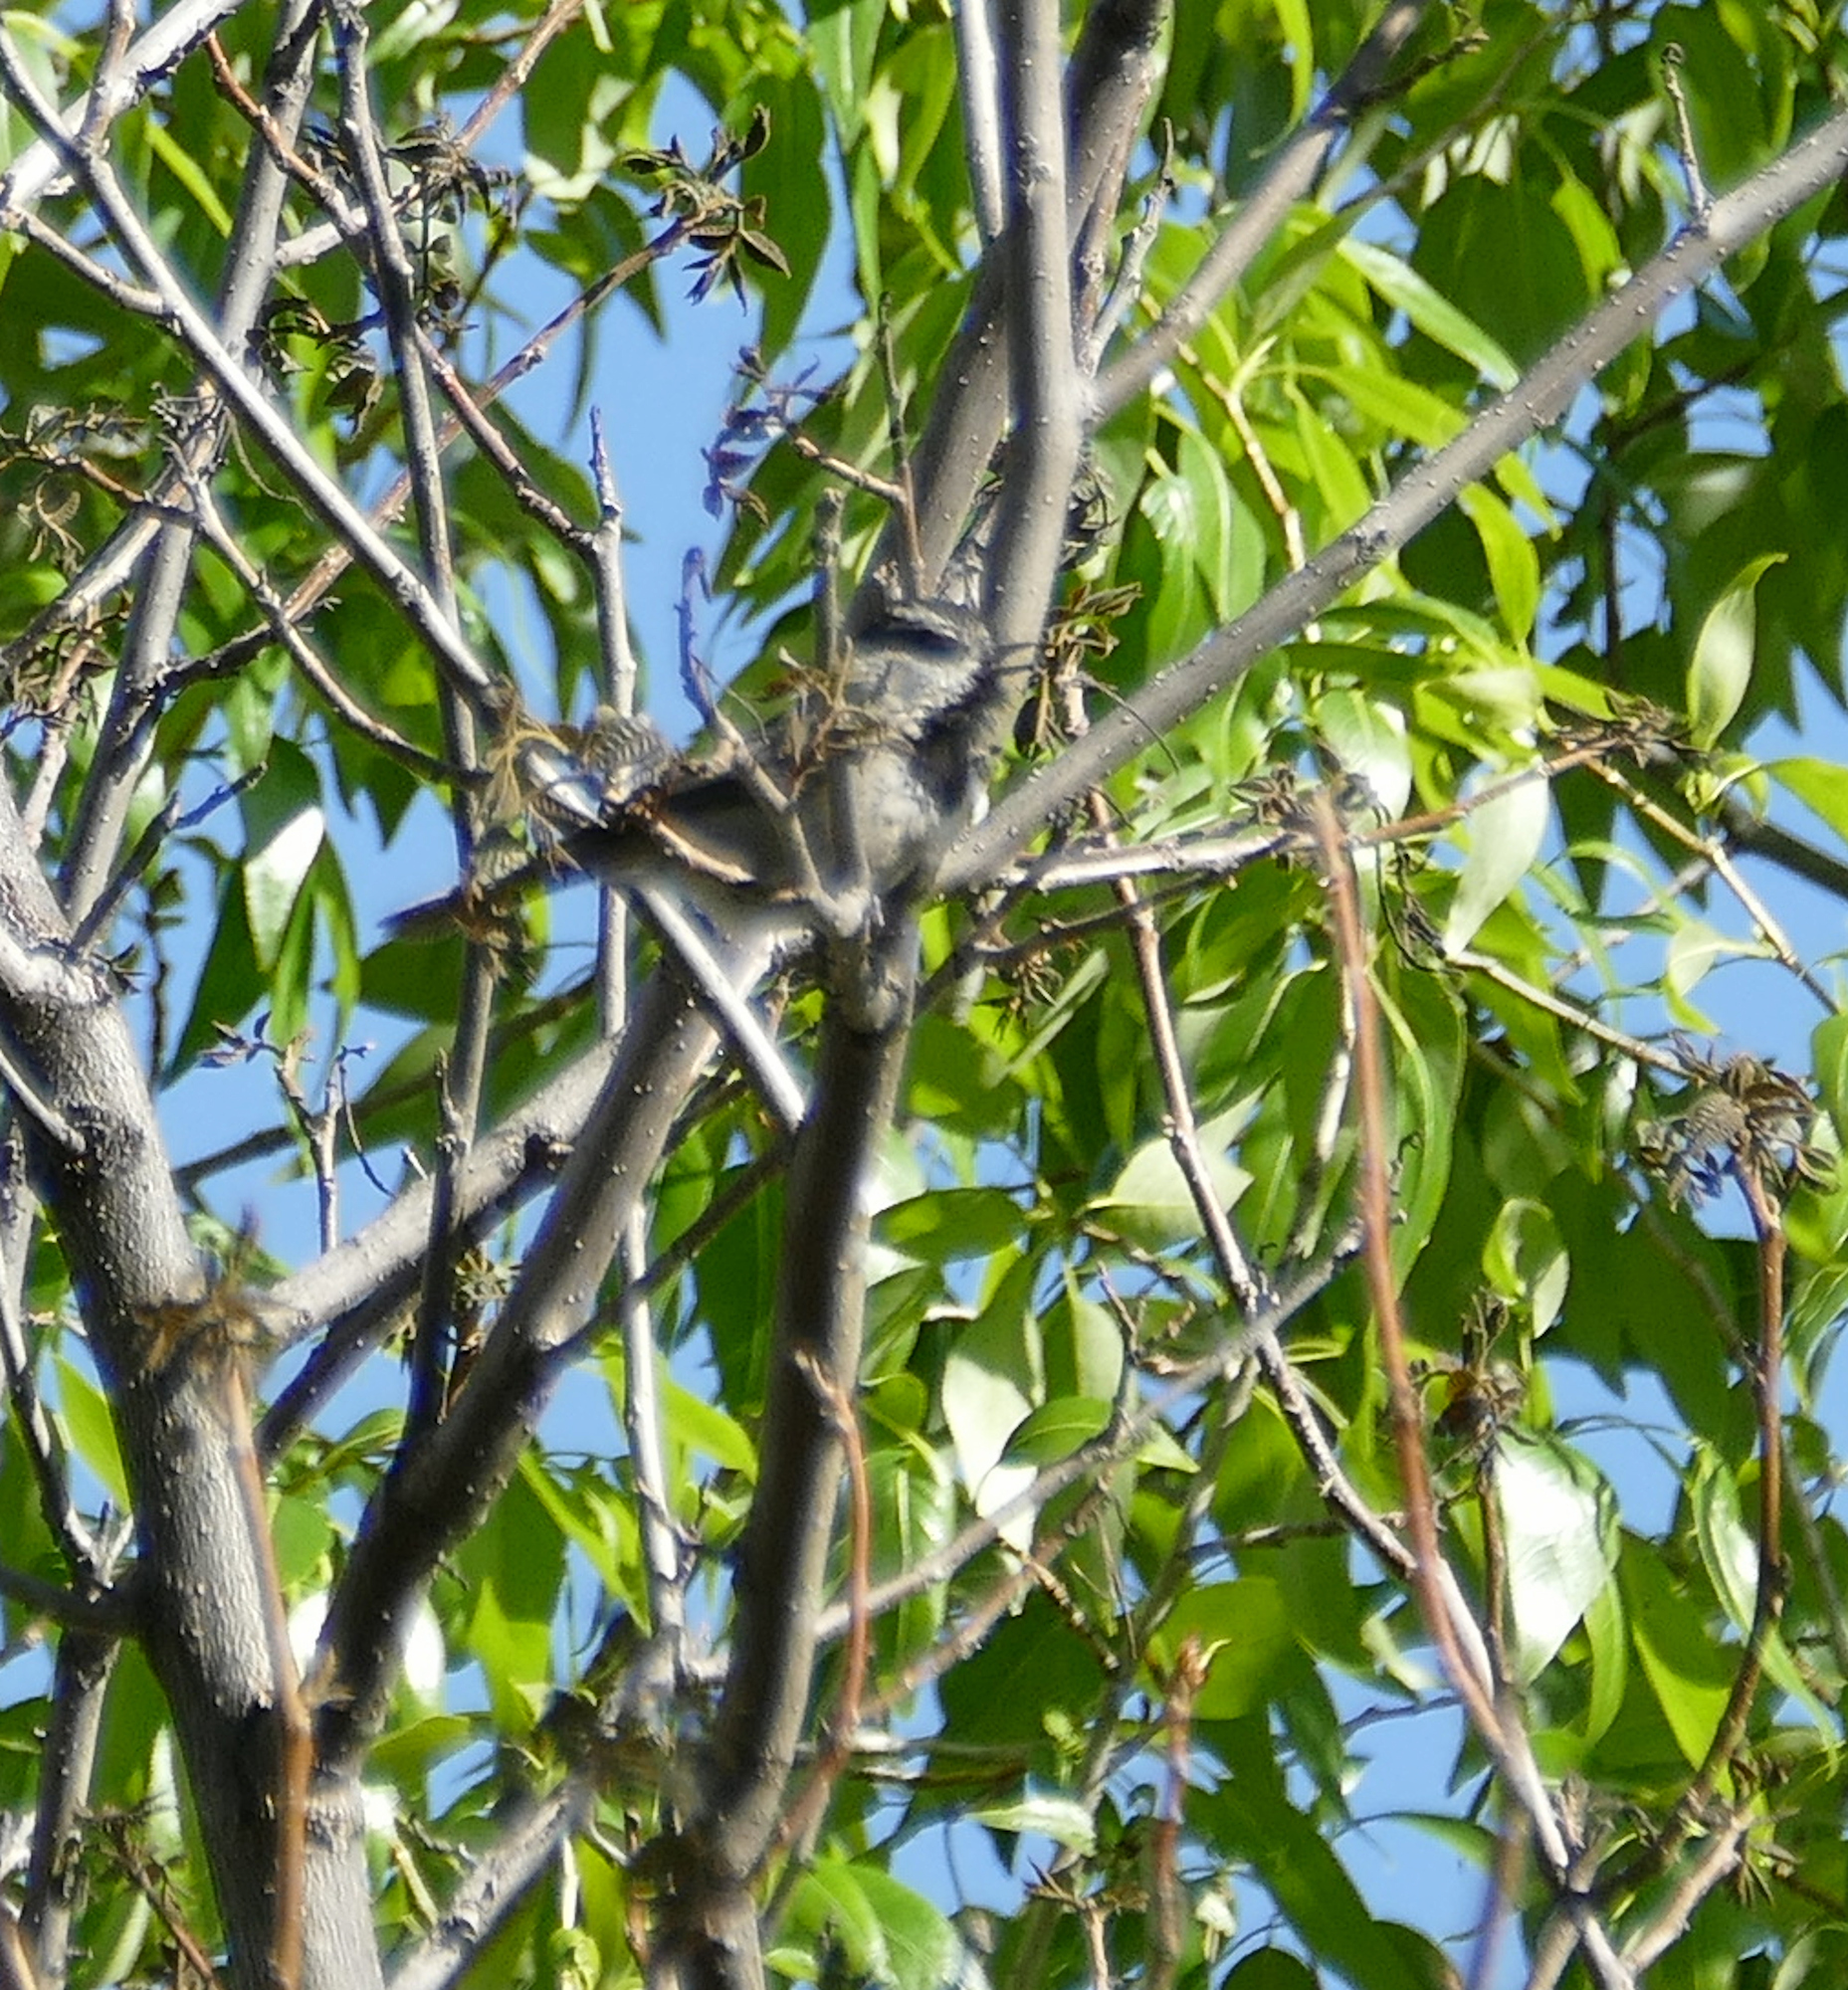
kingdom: Animalia
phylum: Chordata
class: Aves
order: Passeriformes
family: Paridae
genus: Poecile
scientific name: Poecile gambeli
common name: Mountain chickadee
